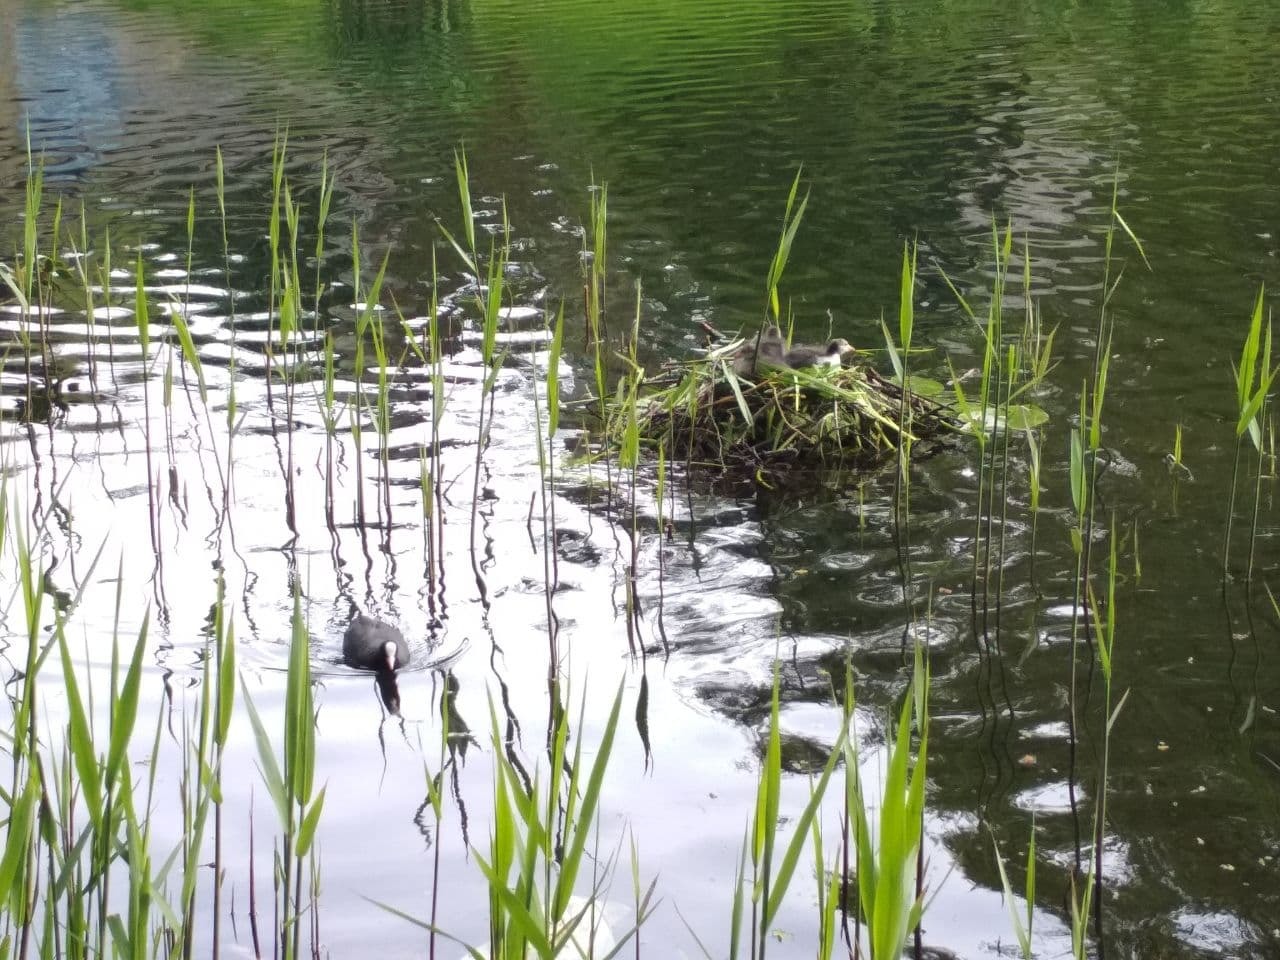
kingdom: Animalia
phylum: Chordata
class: Aves
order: Gruiformes
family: Rallidae
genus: Fulica
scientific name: Fulica atra
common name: Eurasian coot
